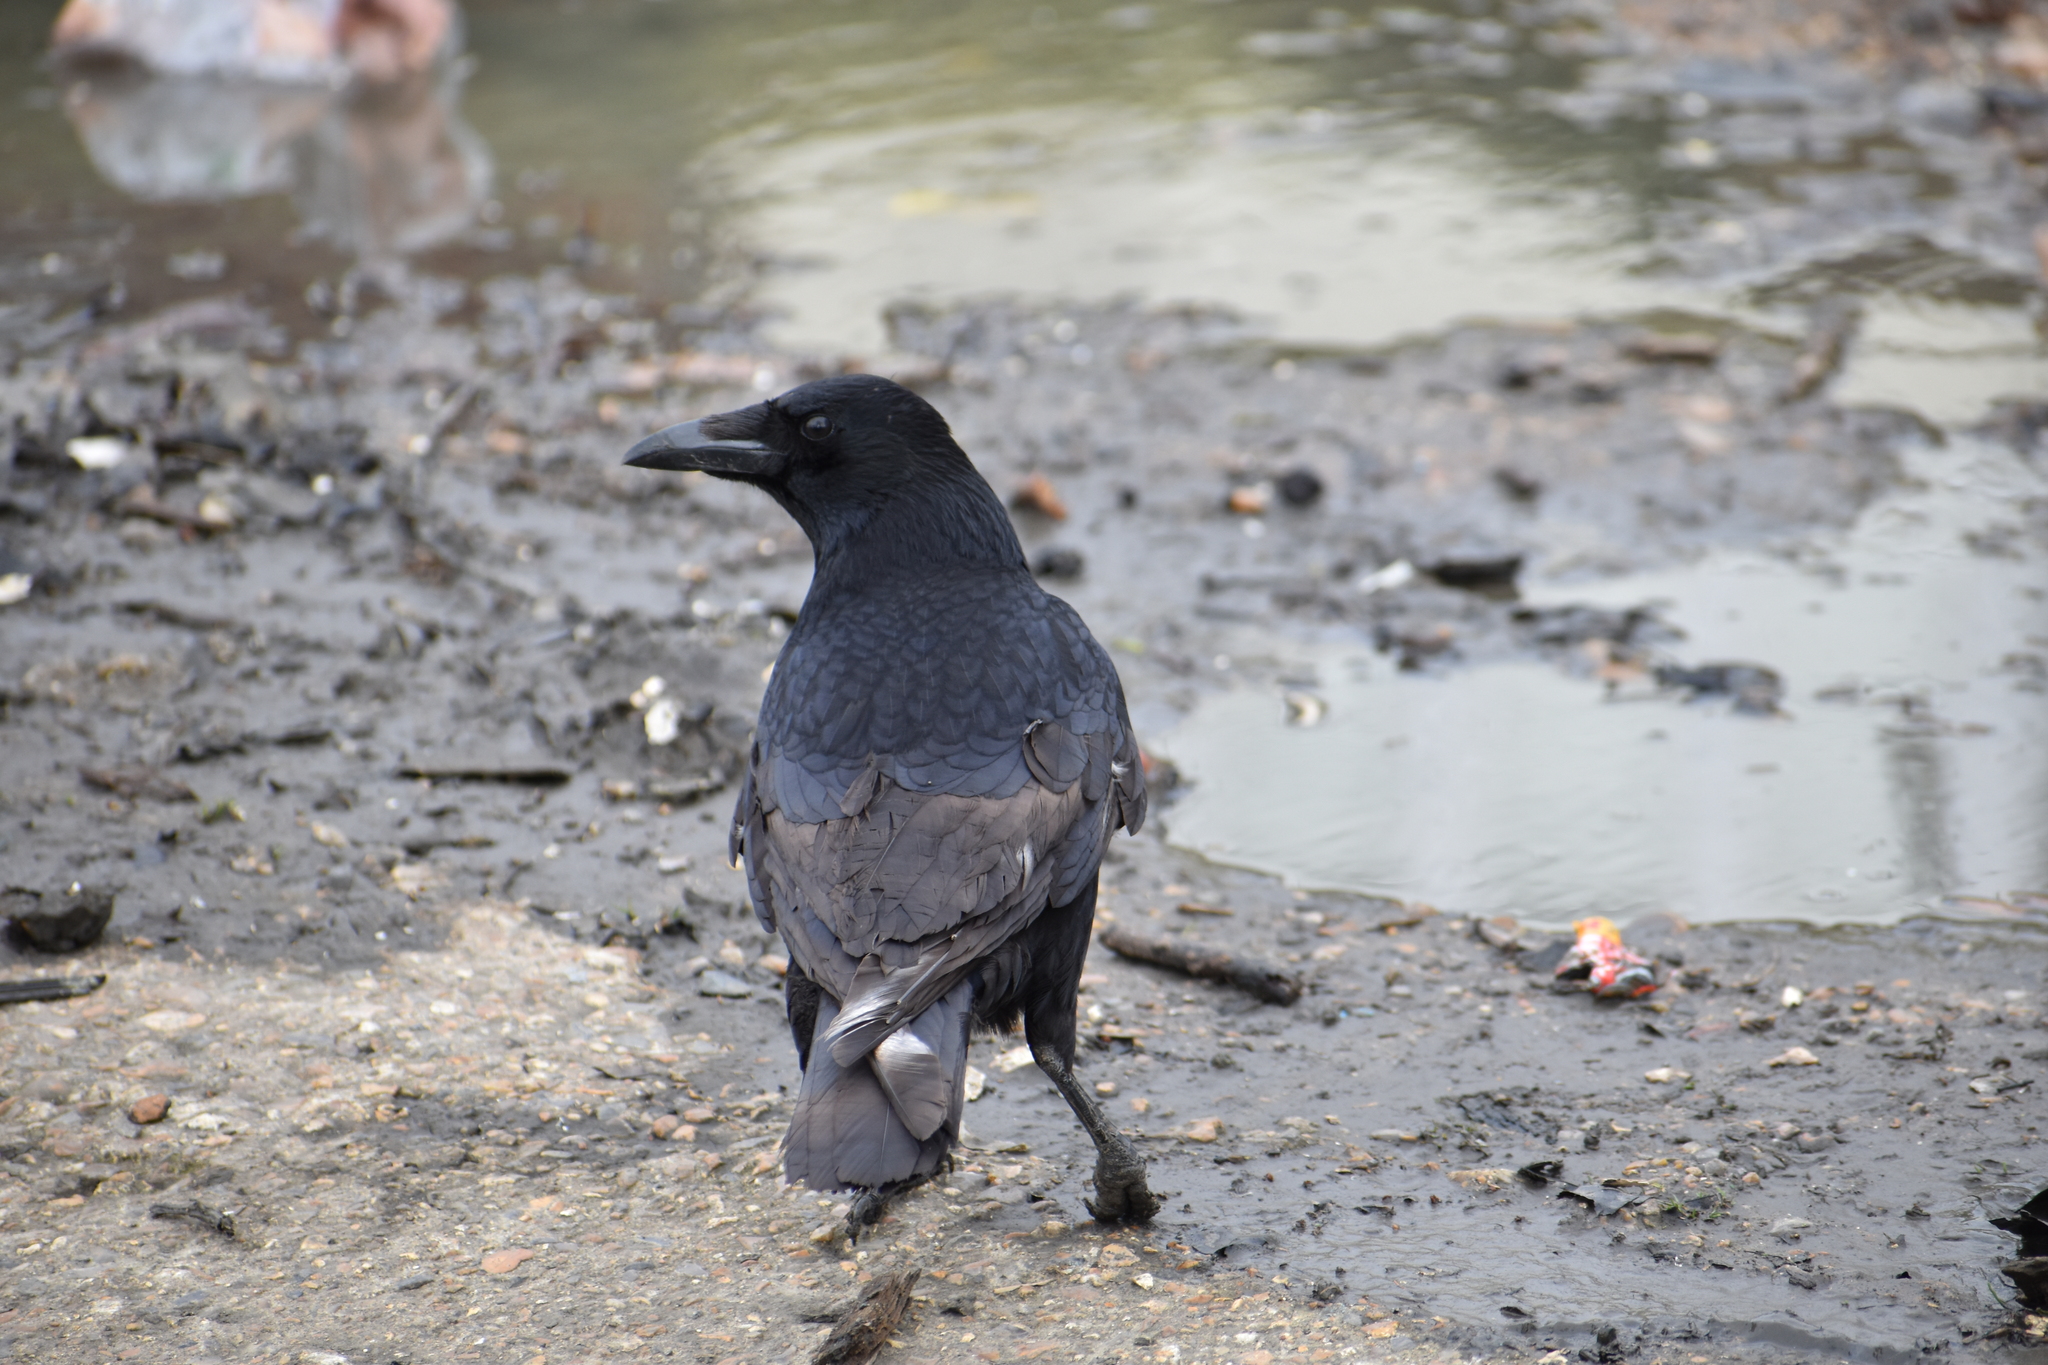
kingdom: Animalia
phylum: Chordata
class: Aves
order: Passeriformes
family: Corvidae
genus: Corvus
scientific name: Corvus corone
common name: Carrion crow
